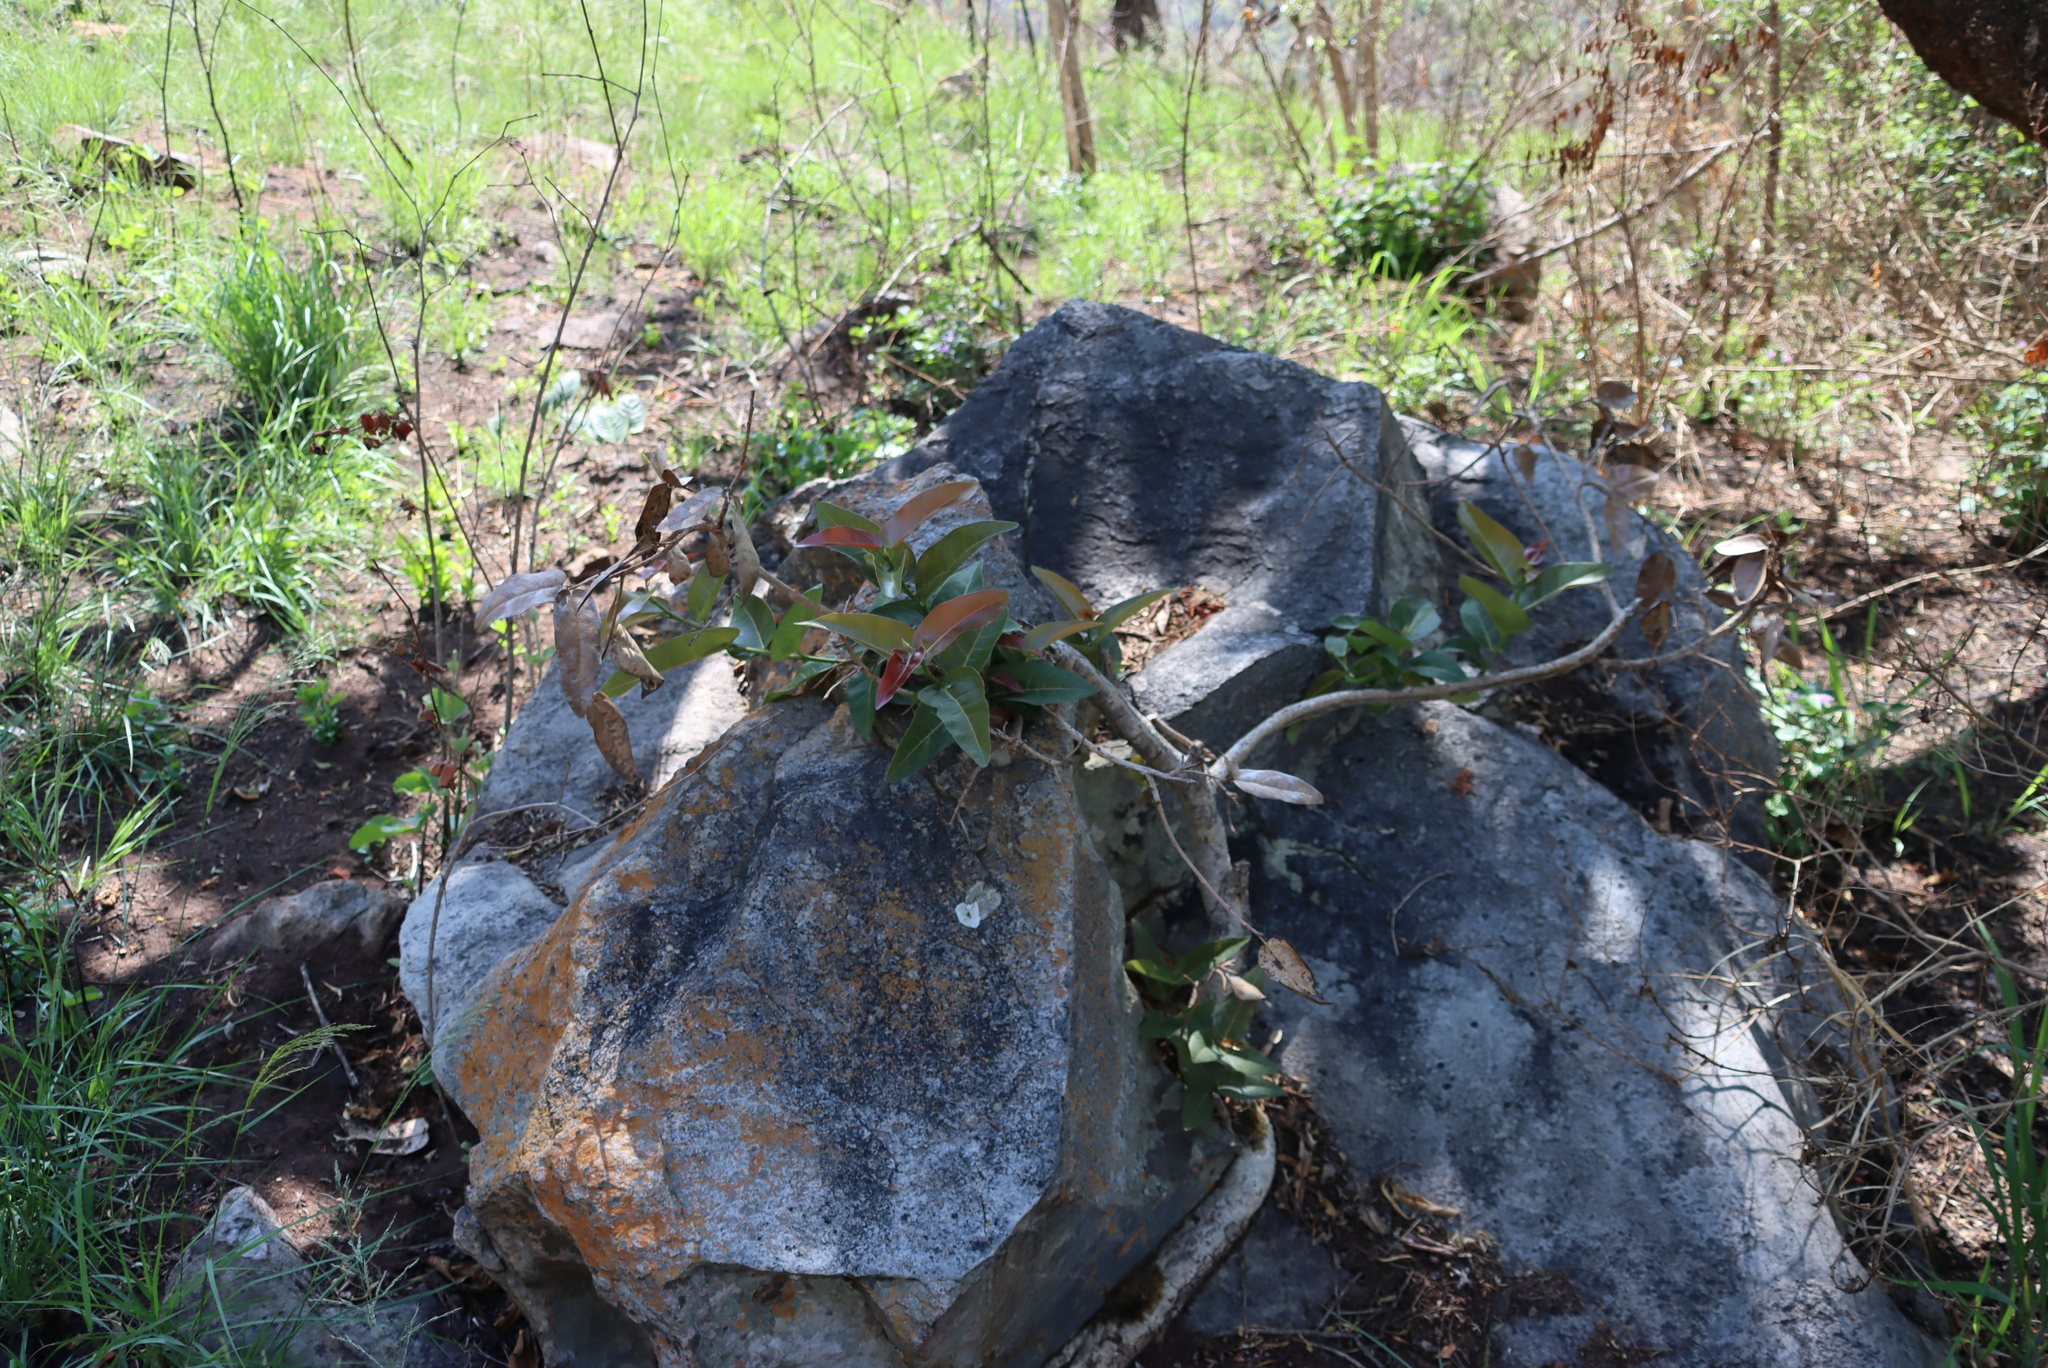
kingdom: Plantae
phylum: Tracheophyta
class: Magnoliopsida
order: Rosales
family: Moraceae
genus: Ficus
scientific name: Ficus ingens
